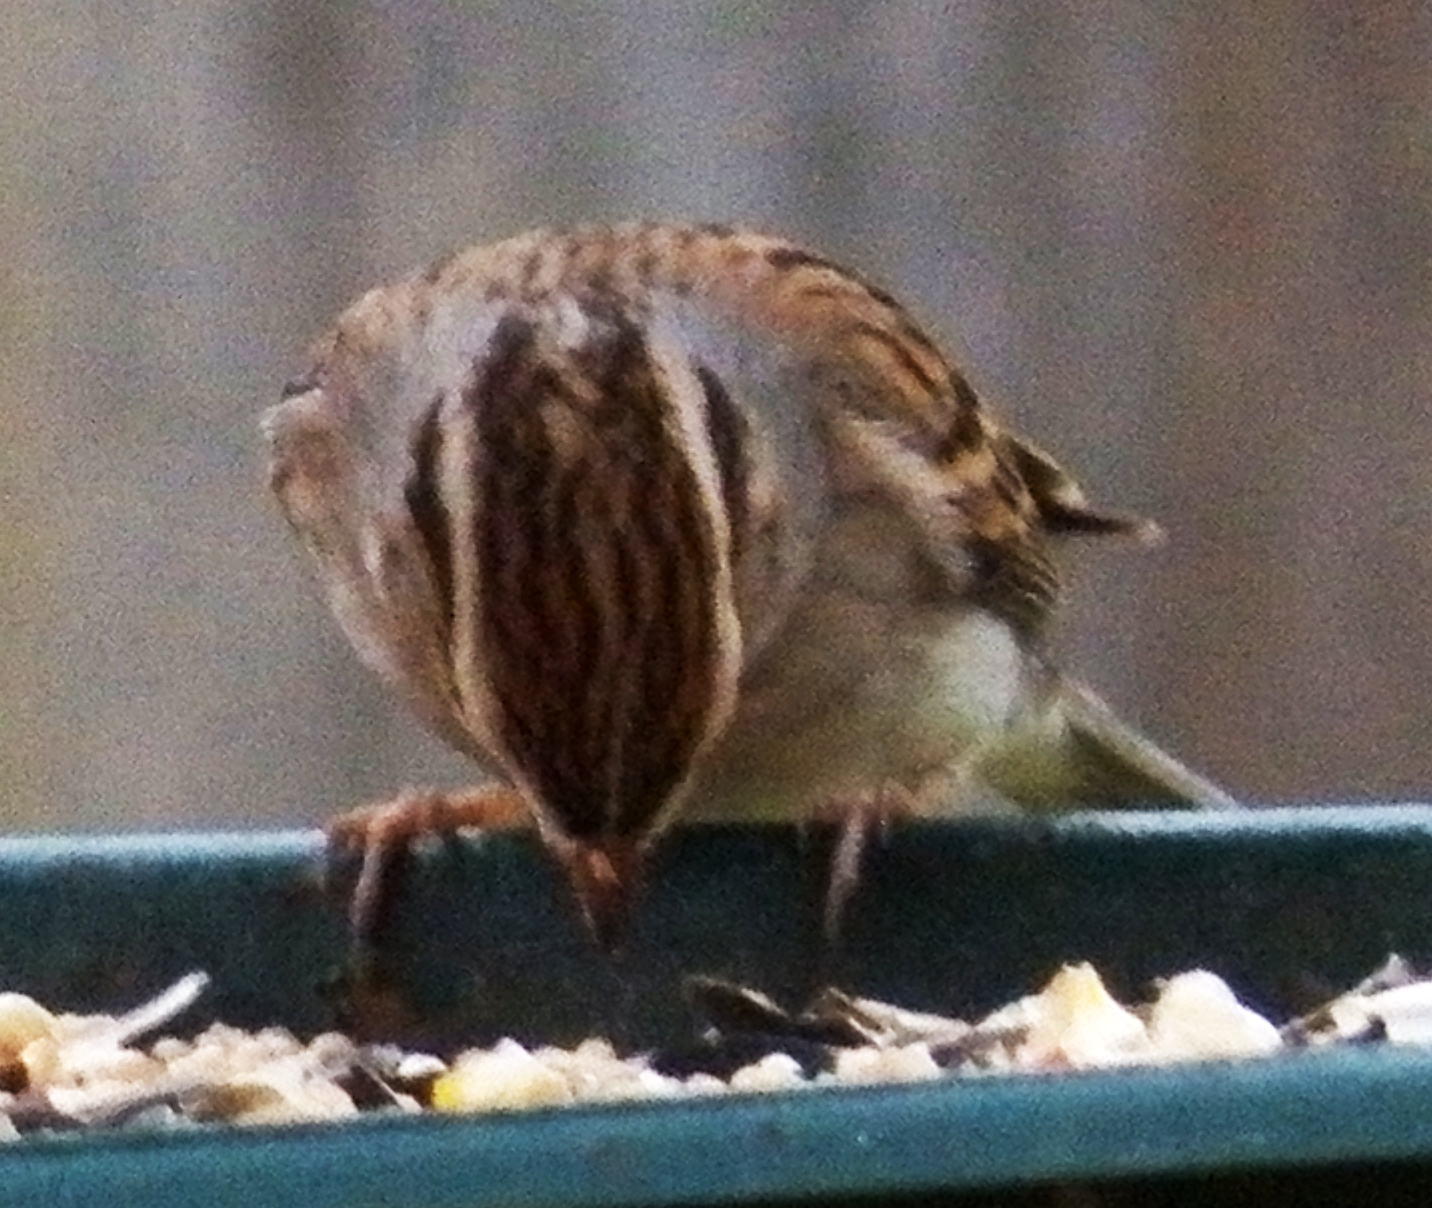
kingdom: Animalia
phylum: Chordata
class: Aves
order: Passeriformes
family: Passerellidae
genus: Spizella
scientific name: Spizella passerina
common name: Chipping sparrow
